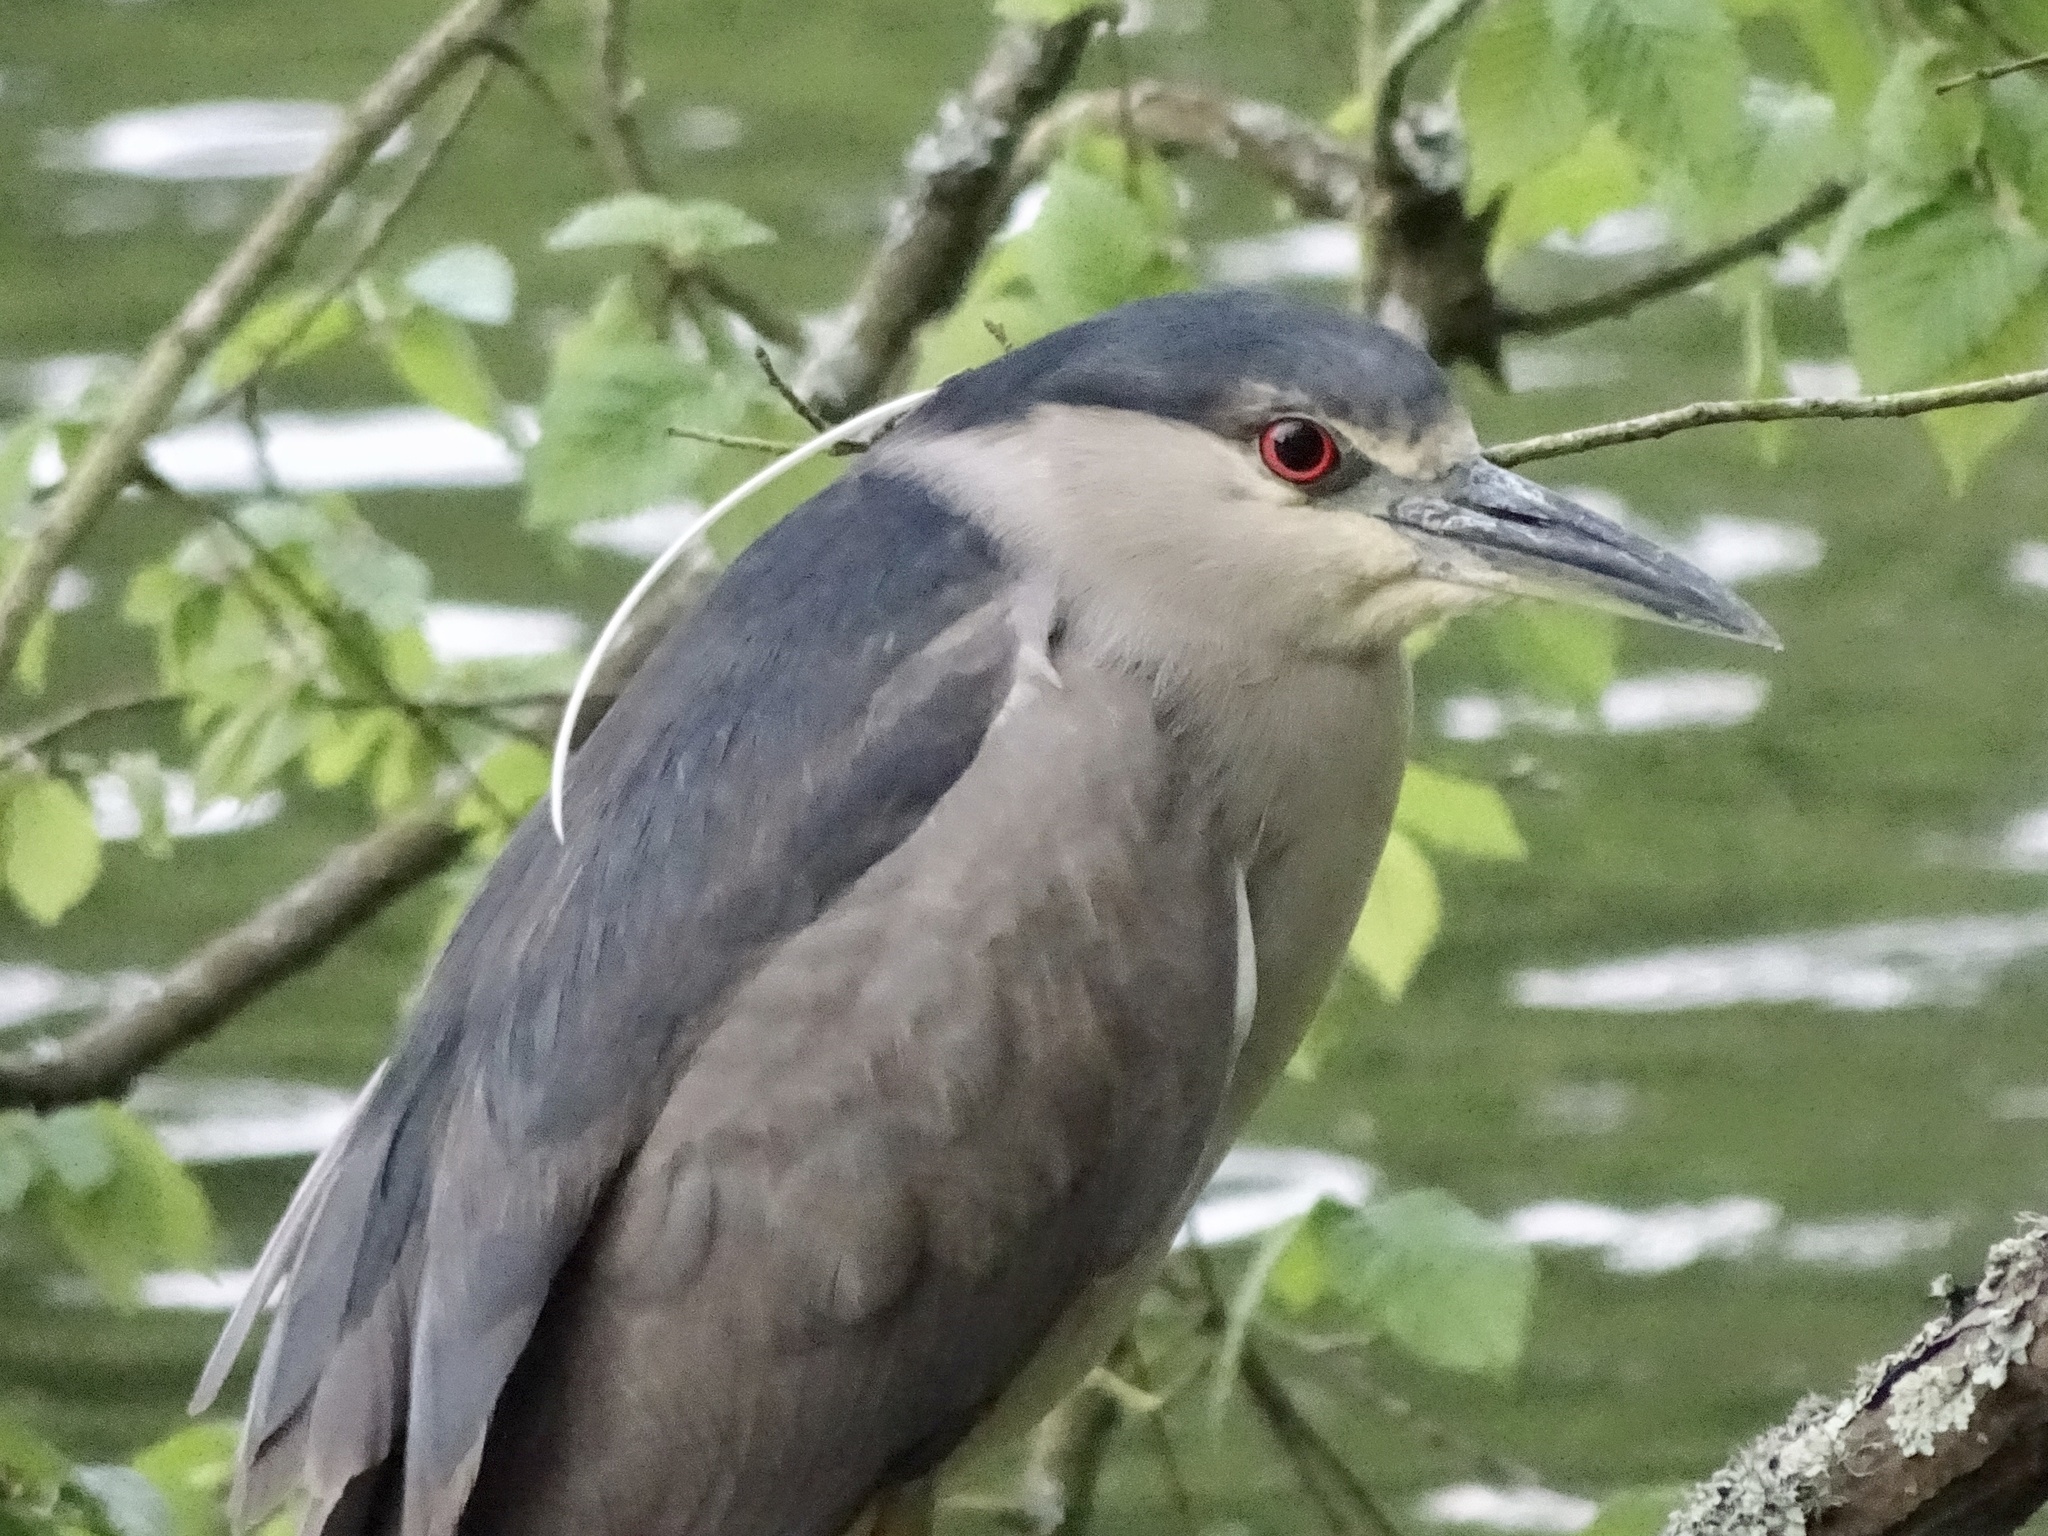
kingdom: Animalia
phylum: Chordata
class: Aves
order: Pelecaniformes
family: Ardeidae
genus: Nycticorax
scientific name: Nycticorax nycticorax
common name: Black-crowned night heron
